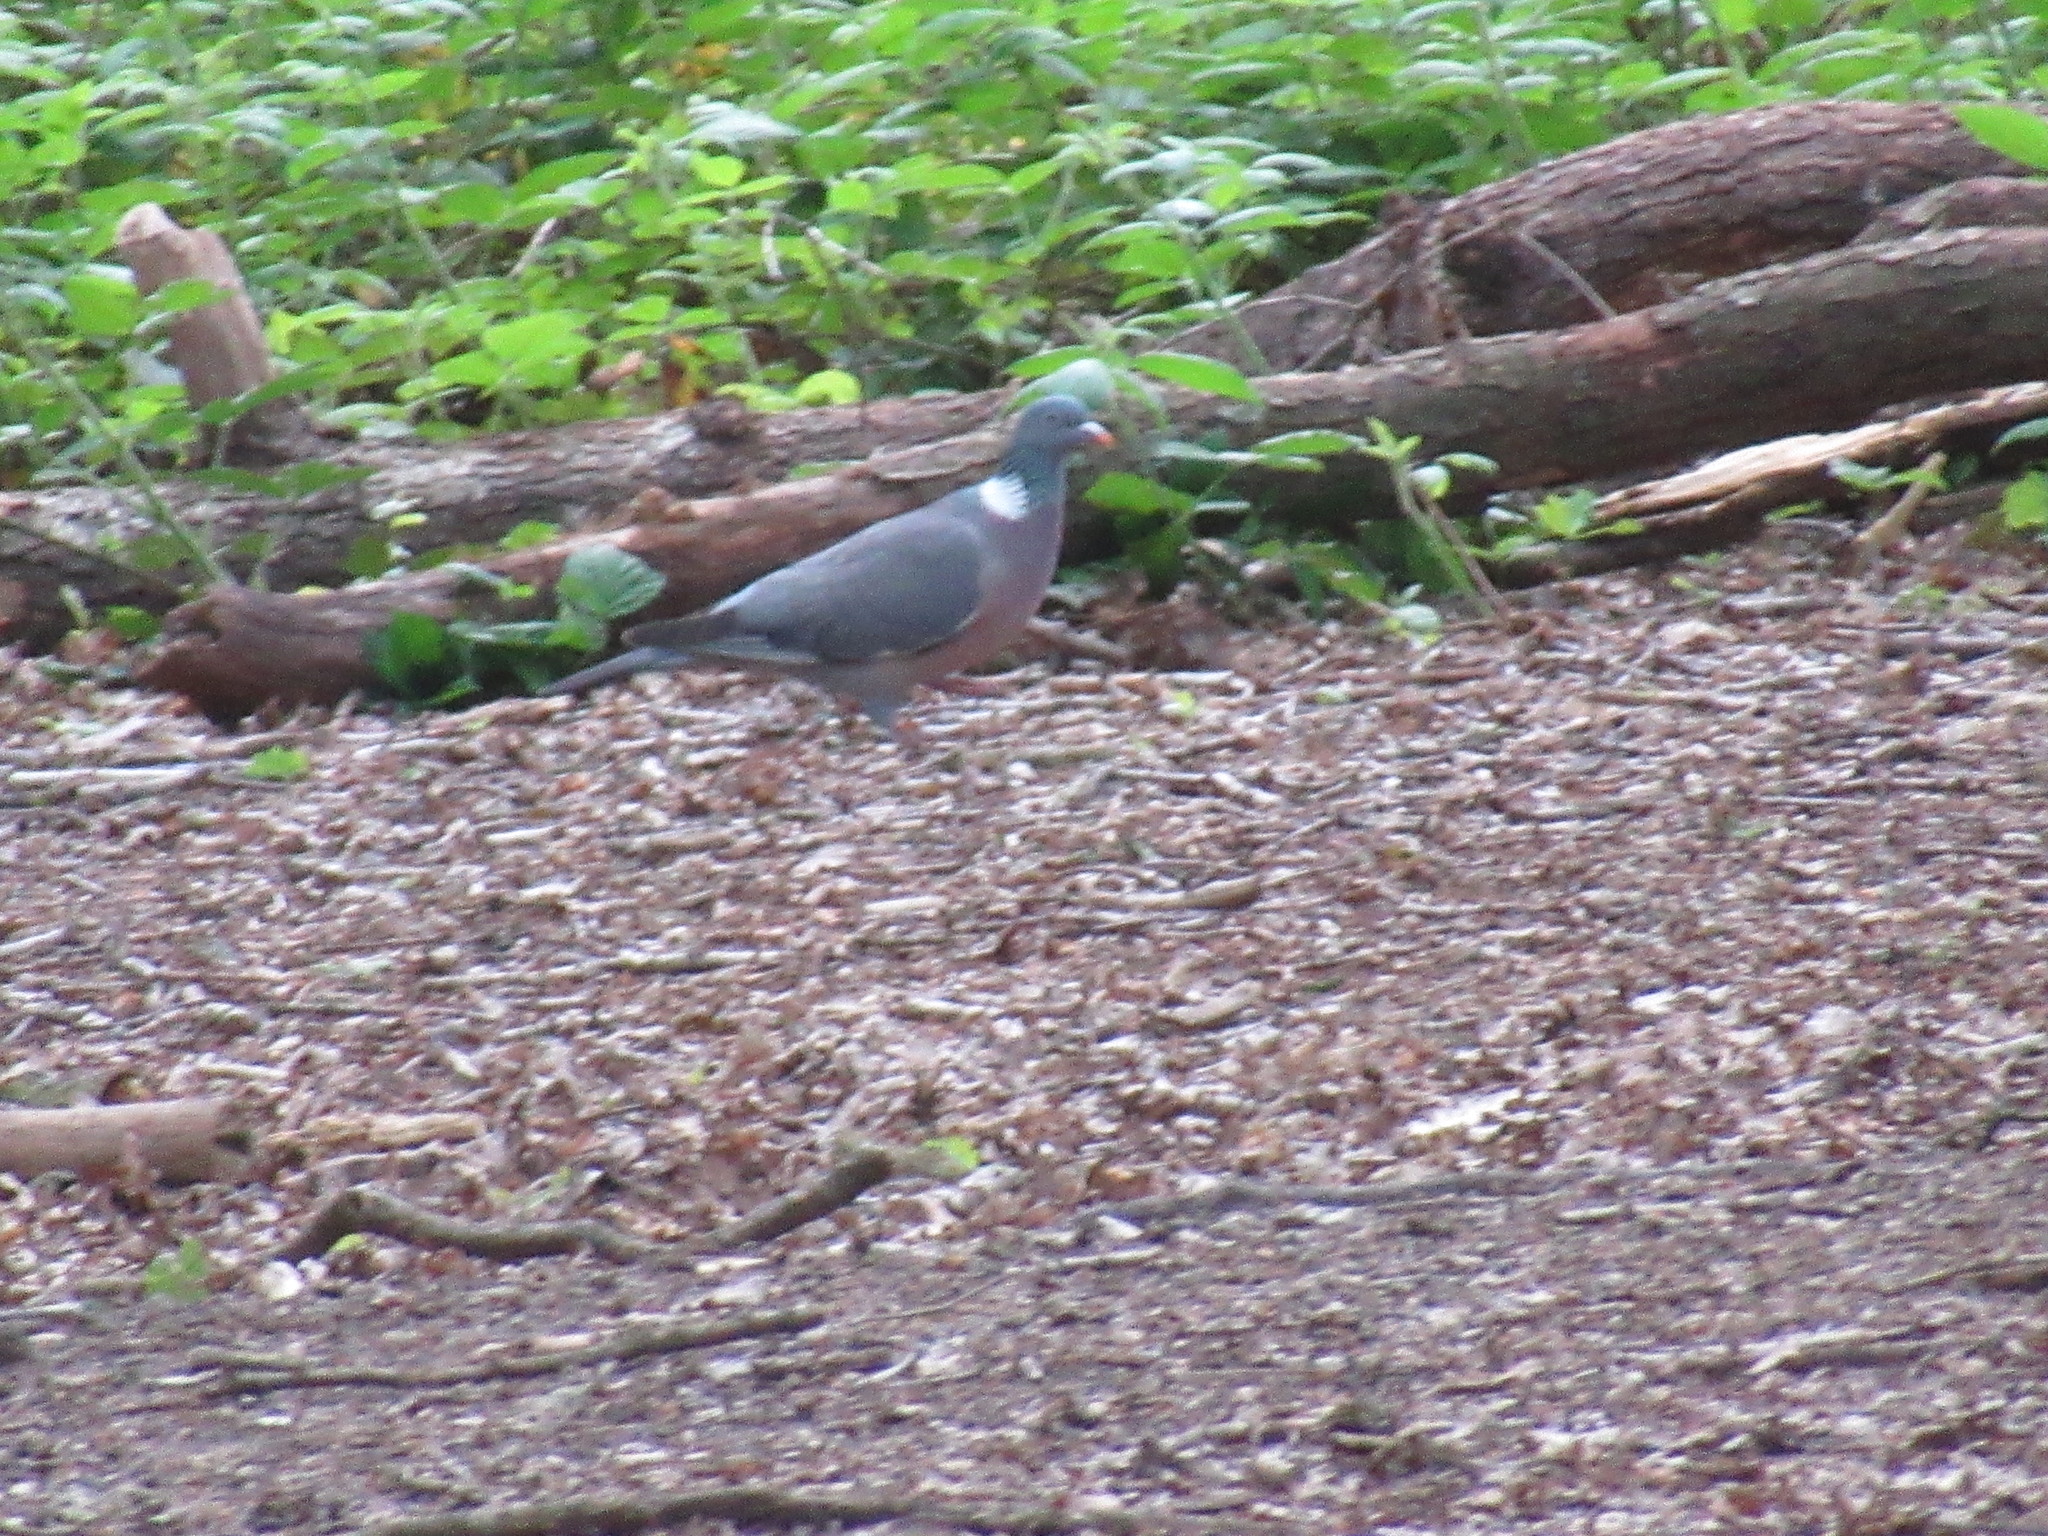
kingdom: Animalia
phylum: Chordata
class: Aves
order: Columbiformes
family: Columbidae
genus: Columba
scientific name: Columba palumbus
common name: Common wood pigeon
